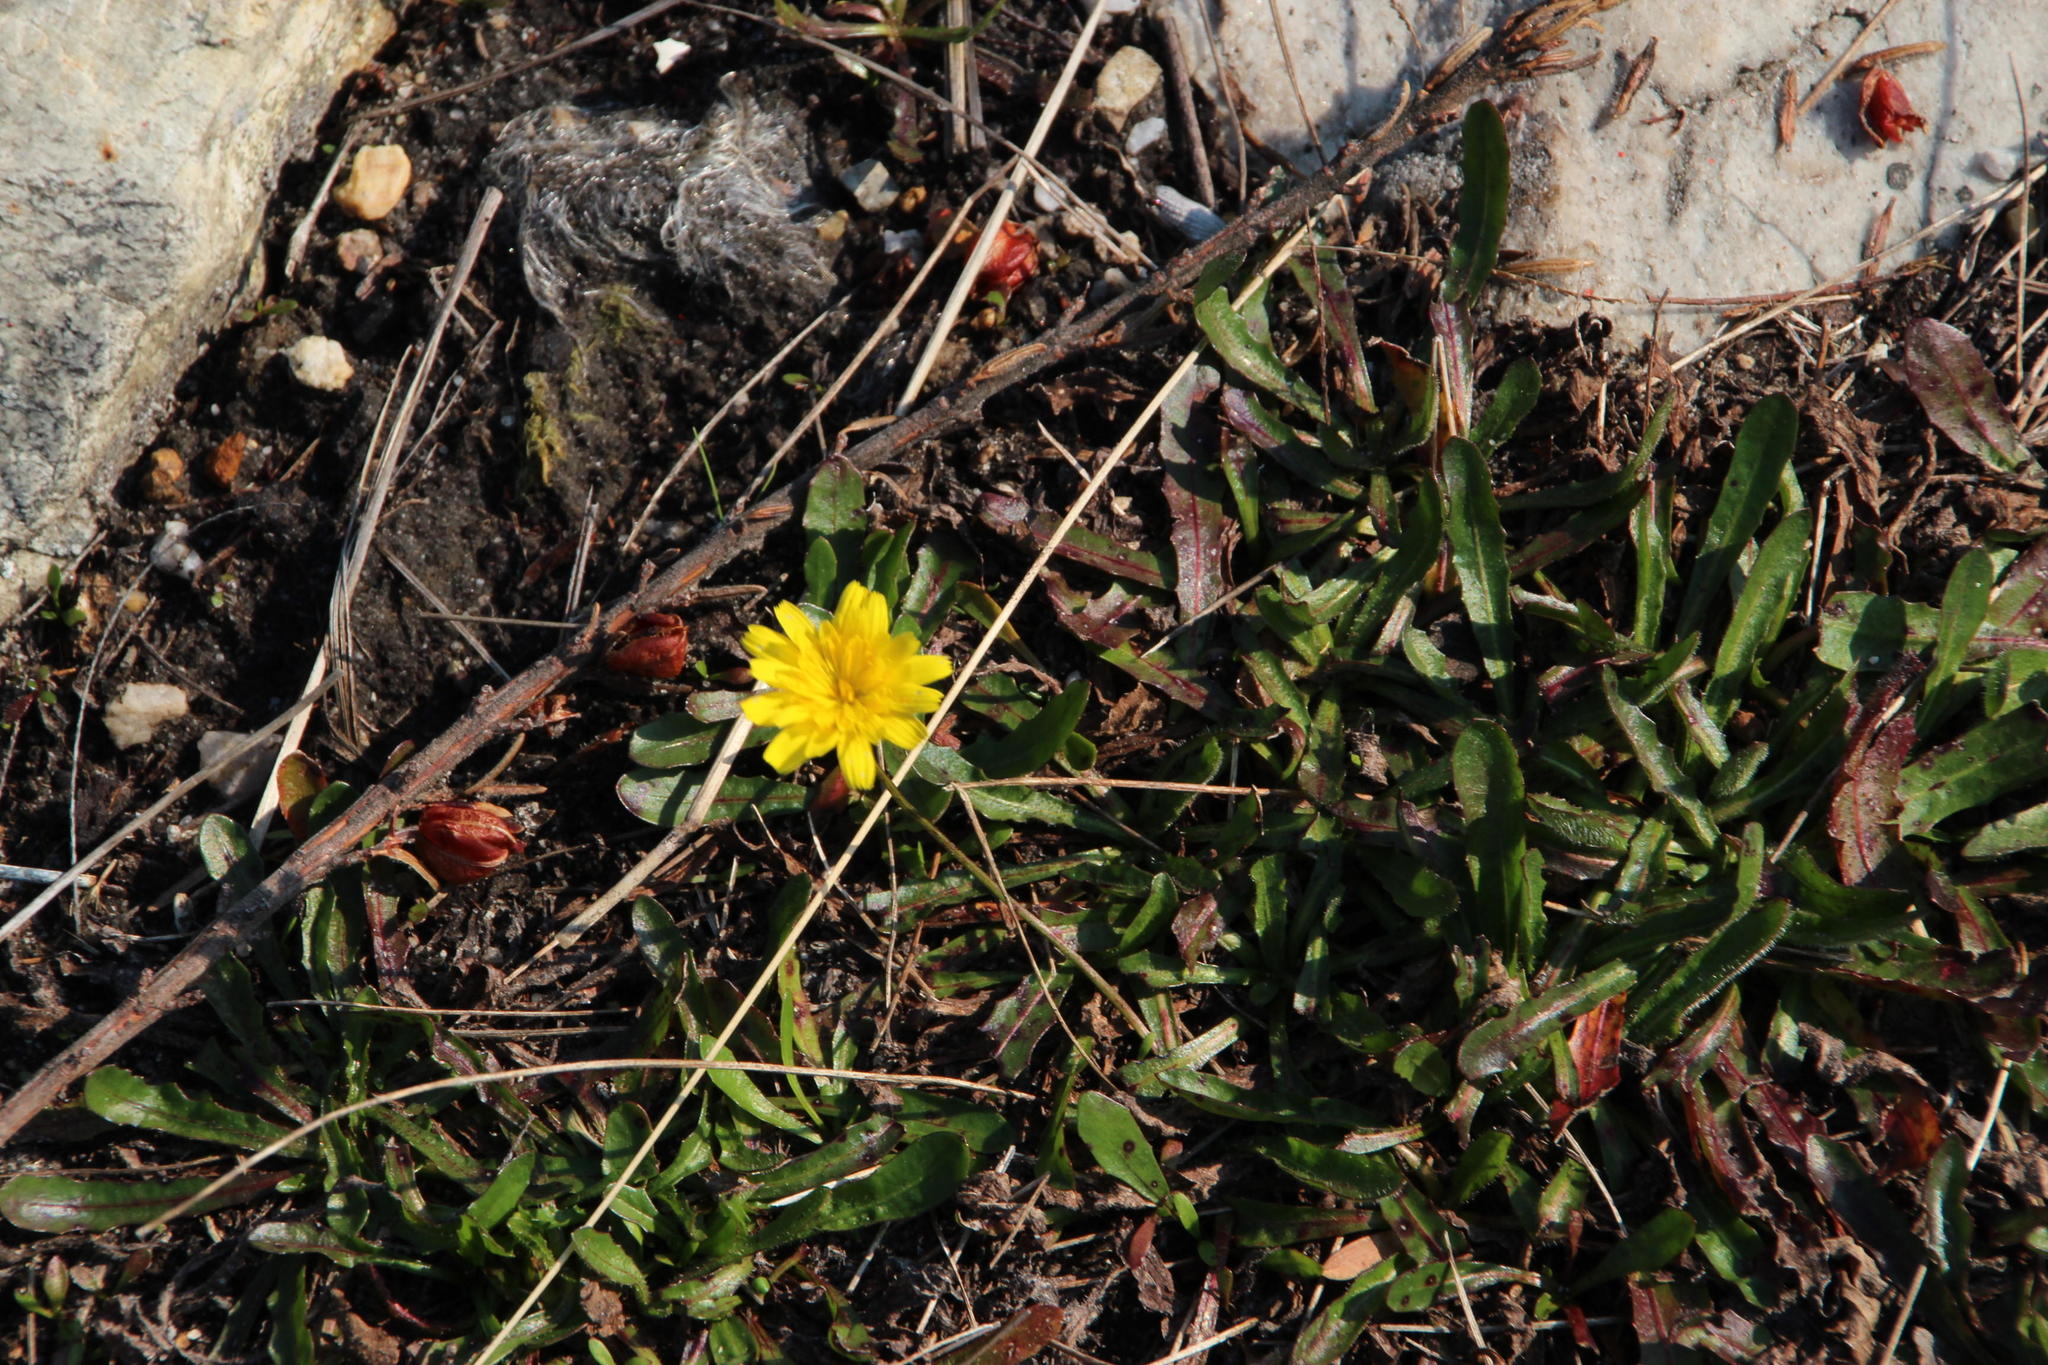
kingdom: Plantae
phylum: Tracheophyta
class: Magnoliopsida
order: Asterales
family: Asteraceae
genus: Hypochaeris
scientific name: Hypochaeris radicata
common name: Flatweed
